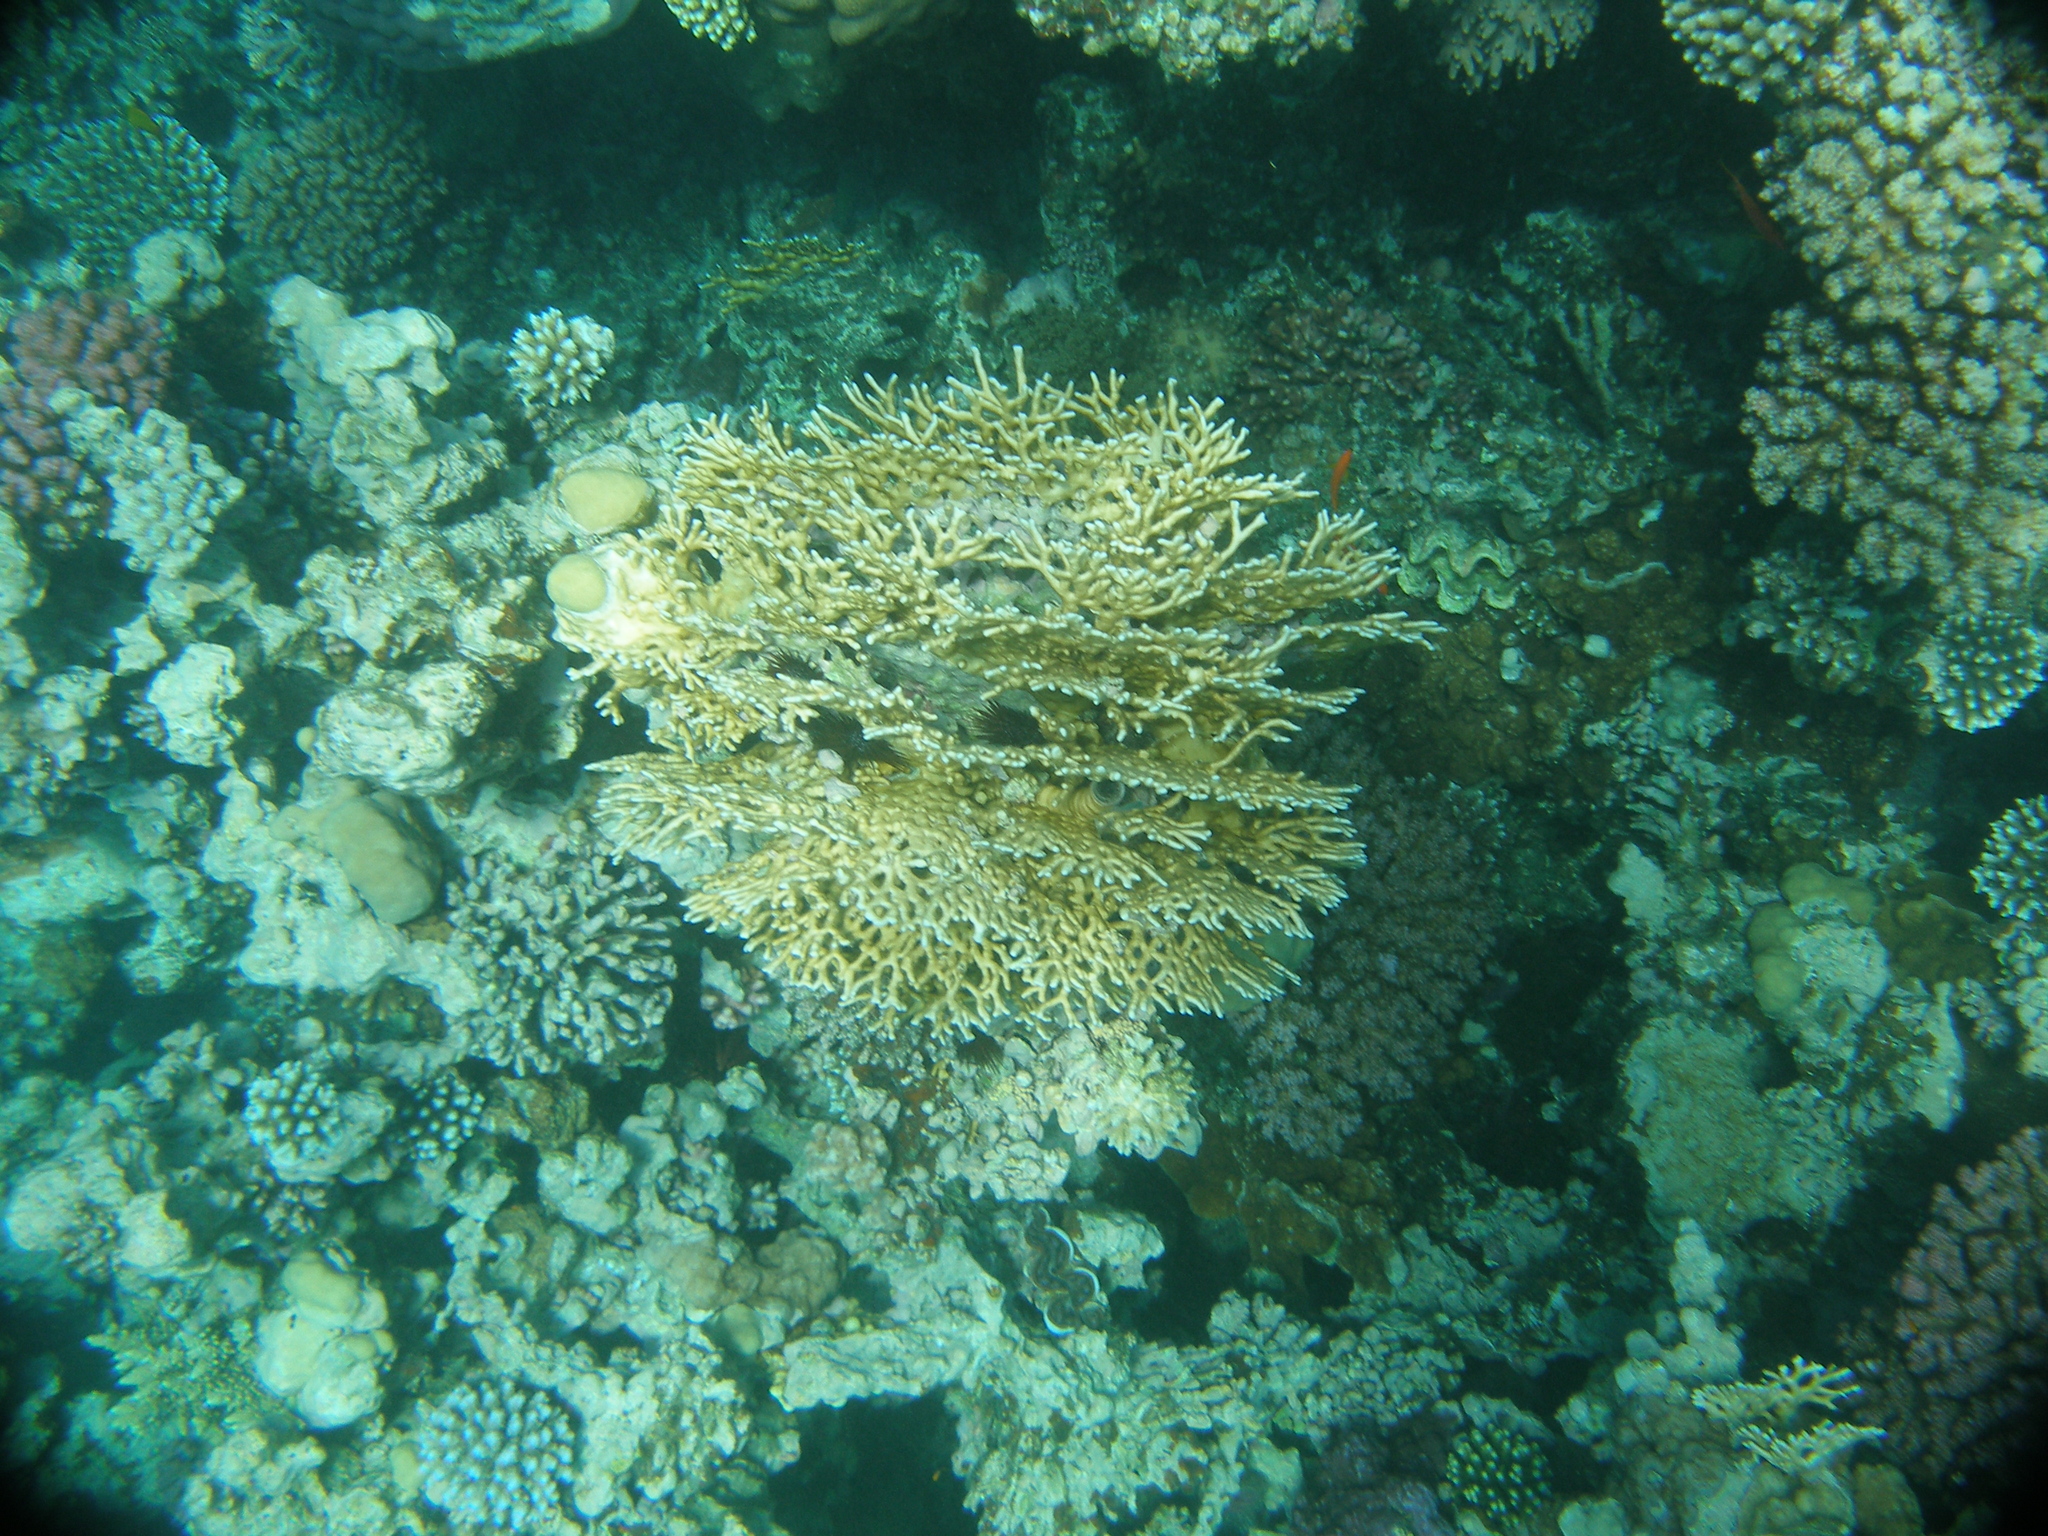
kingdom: Animalia
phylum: Cnidaria
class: Hydrozoa
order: Anthoathecata
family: Milleporidae
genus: Millepora
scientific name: Millepora dichotoma
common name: Ramified fire coral
